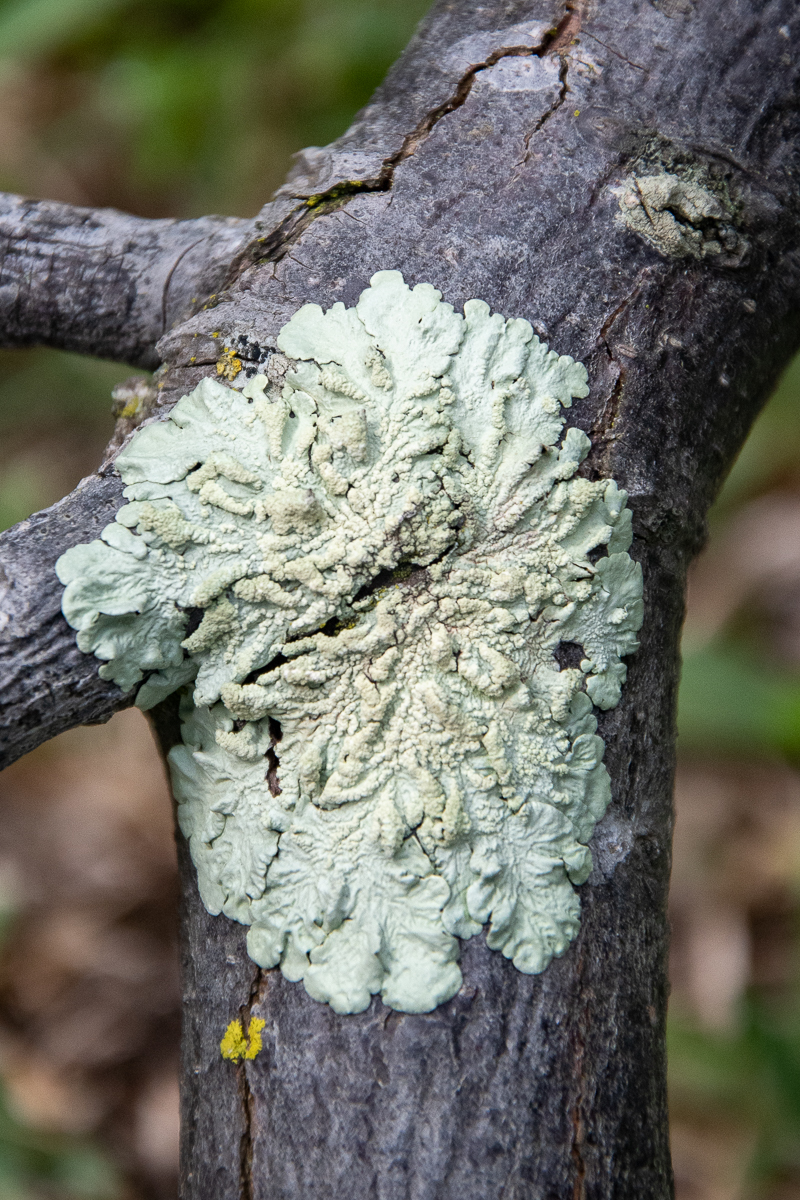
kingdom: Fungi
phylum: Ascomycota
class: Lecanoromycetes
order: Lecanorales
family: Parmeliaceae
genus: Flavoparmelia
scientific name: Flavoparmelia soredians
